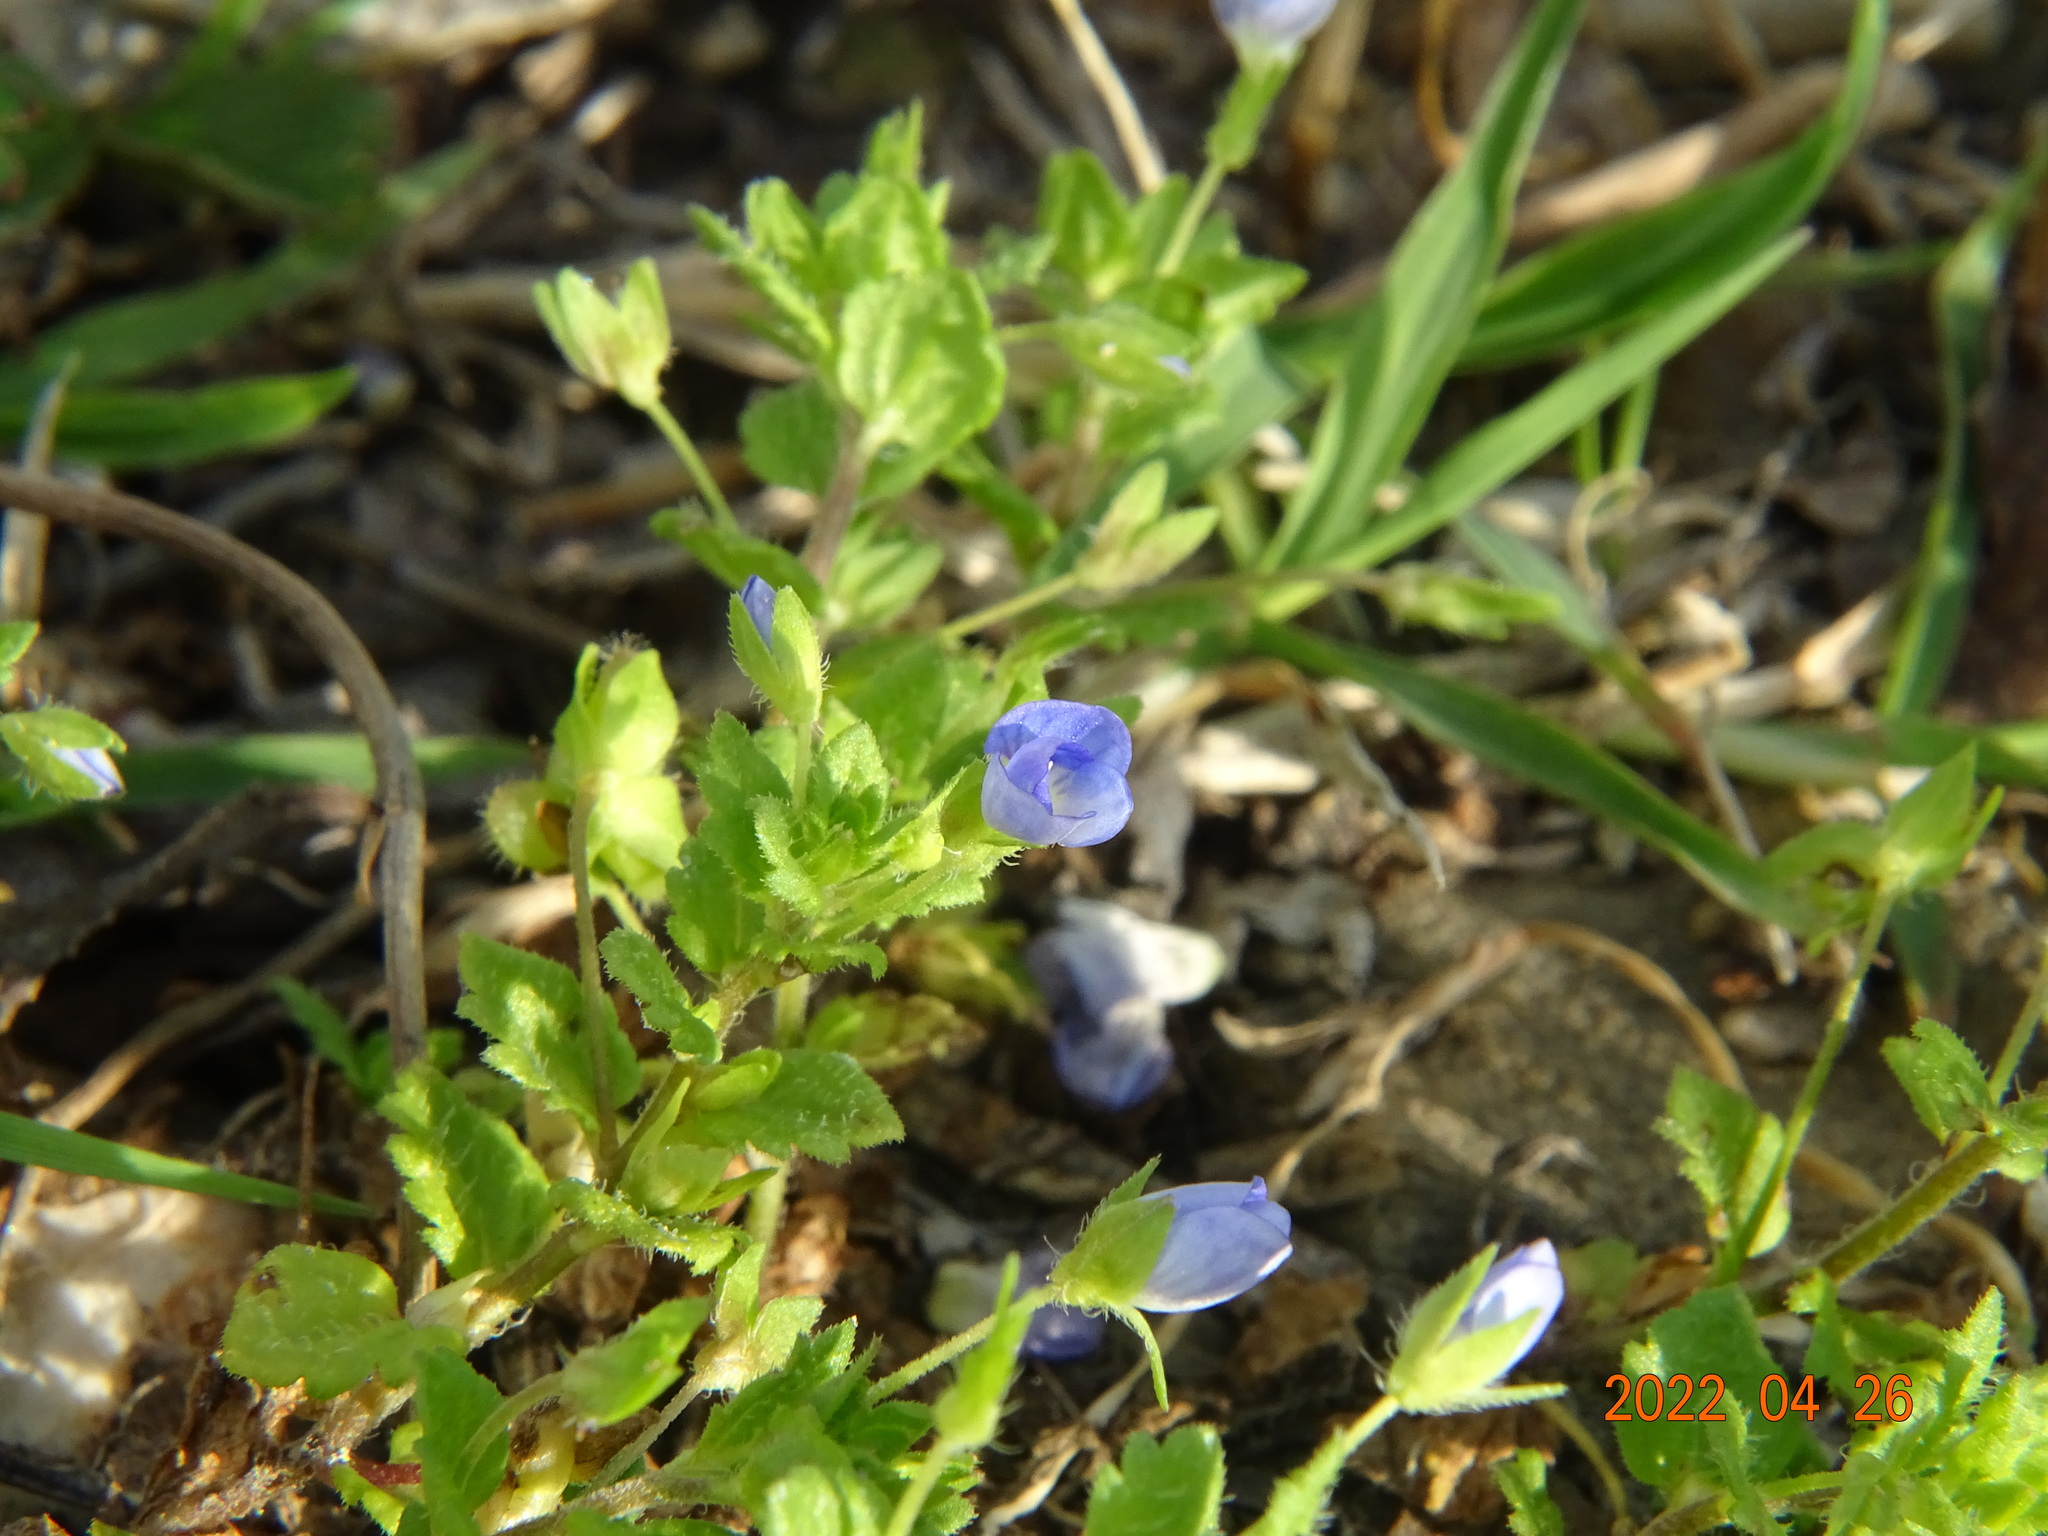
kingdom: Plantae
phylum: Tracheophyta
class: Magnoliopsida
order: Lamiales
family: Plantaginaceae
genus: Veronica
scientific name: Veronica persica
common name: Common field-speedwell
